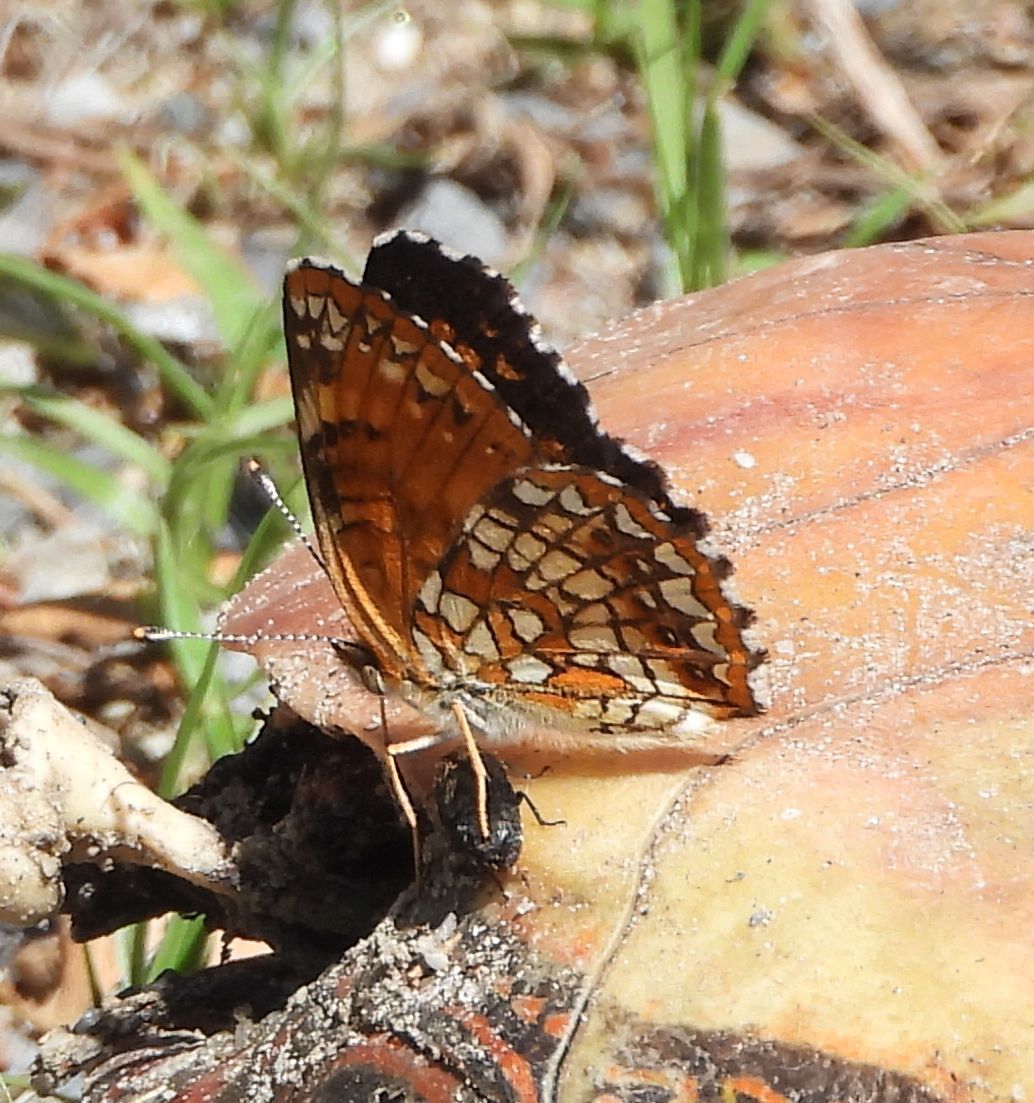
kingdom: Animalia
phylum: Arthropoda
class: Insecta
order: Lepidoptera
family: Nymphalidae
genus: Chlosyne
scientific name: Chlosyne harrisii
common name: Harris's checkerspot
